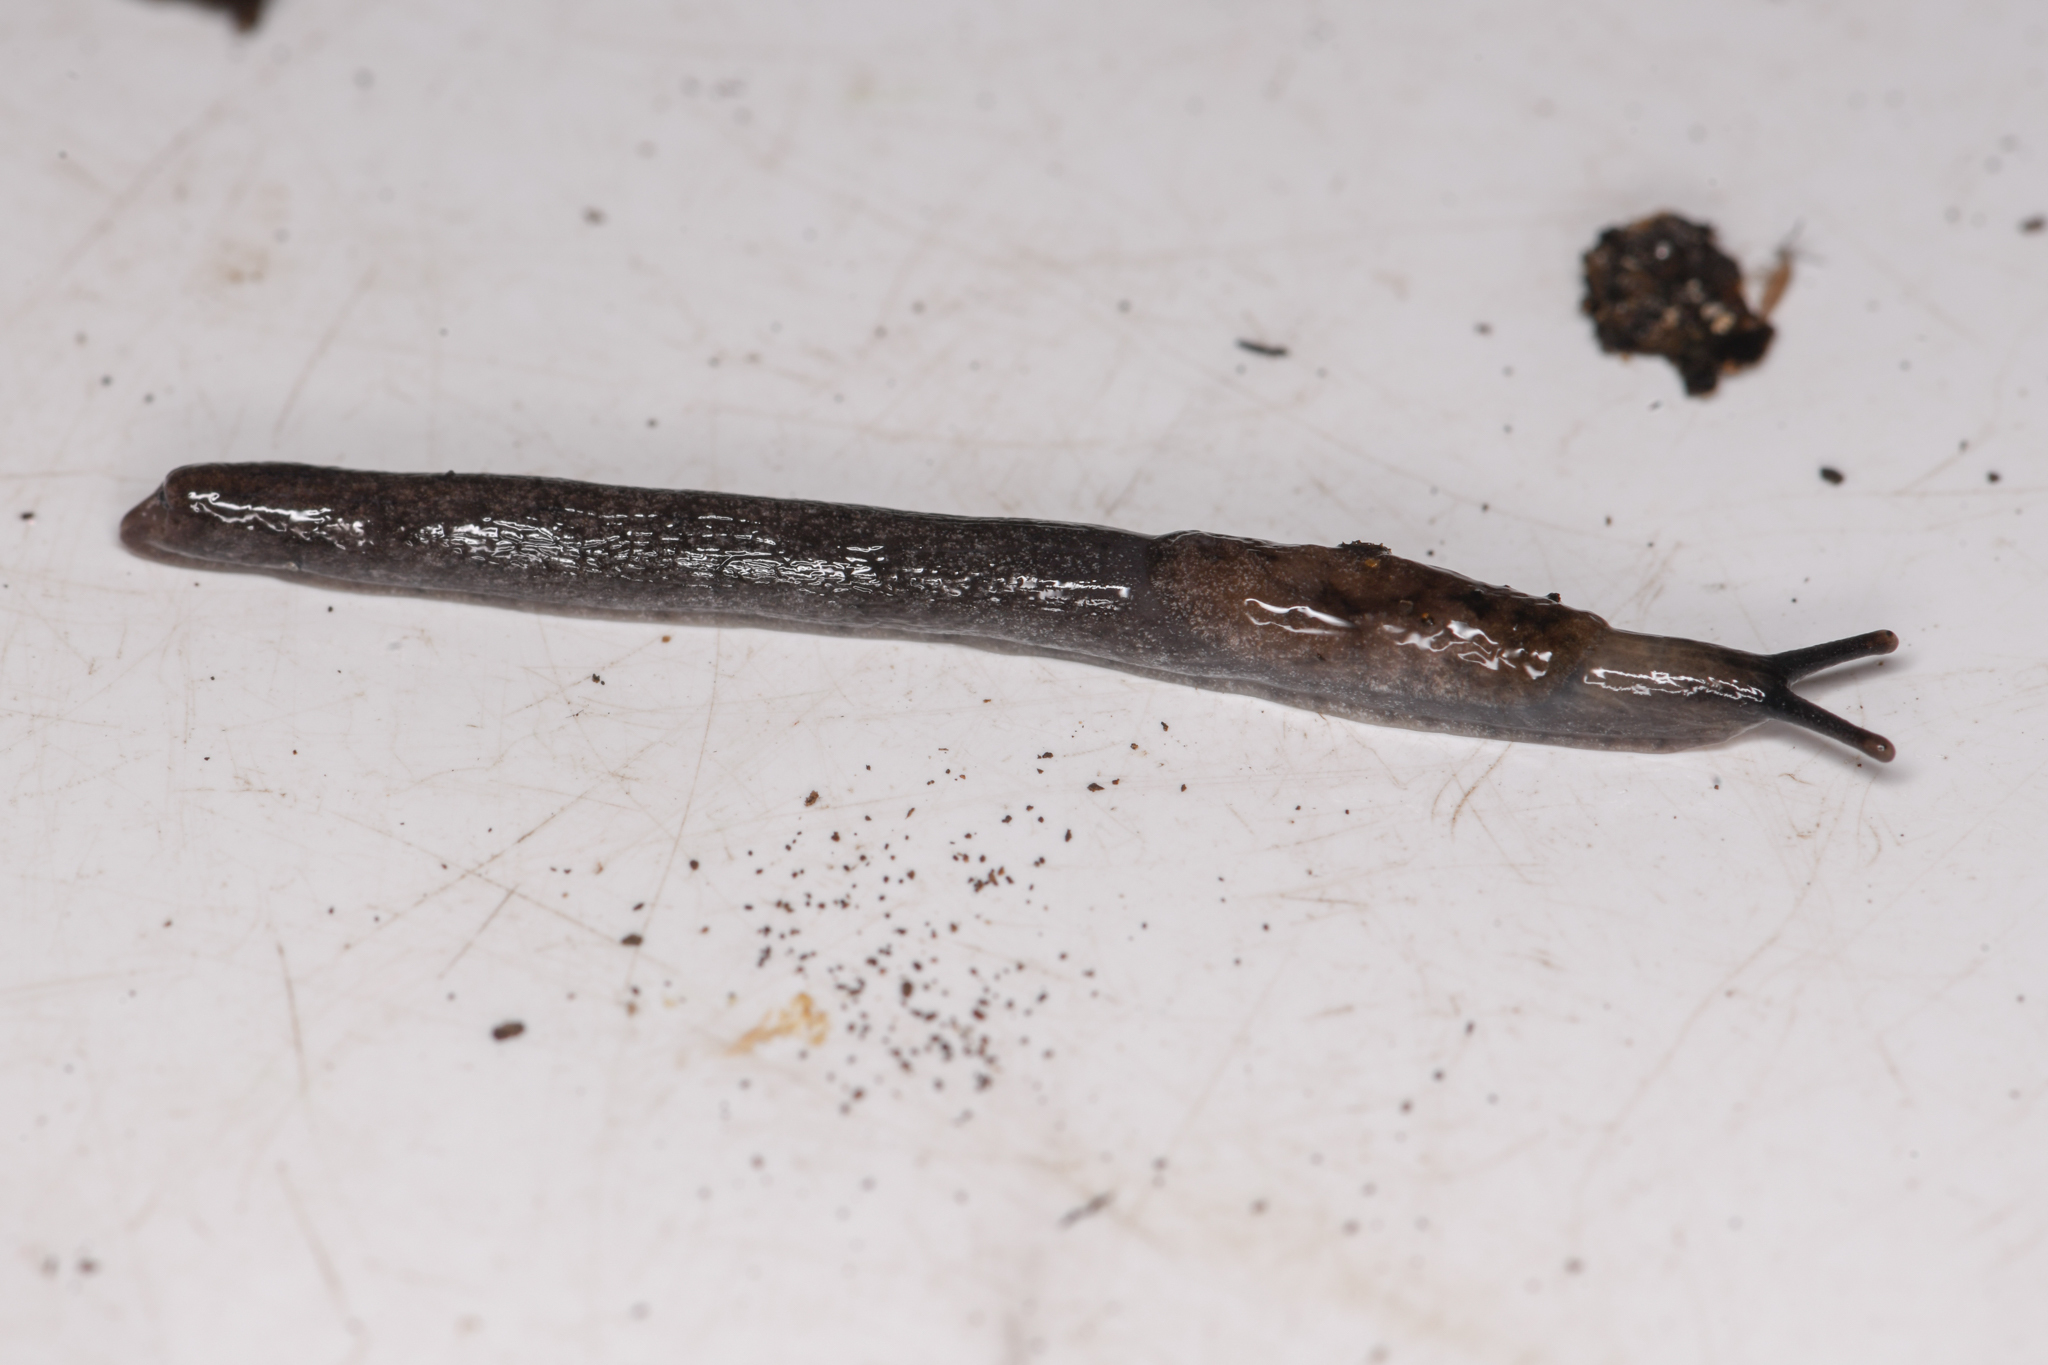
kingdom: Animalia
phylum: Mollusca
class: Gastropoda
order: Stylommatophora
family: Ariolimacidae
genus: Hesperarion
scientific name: Hesperarion hemphilli
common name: Hemphill western slug
